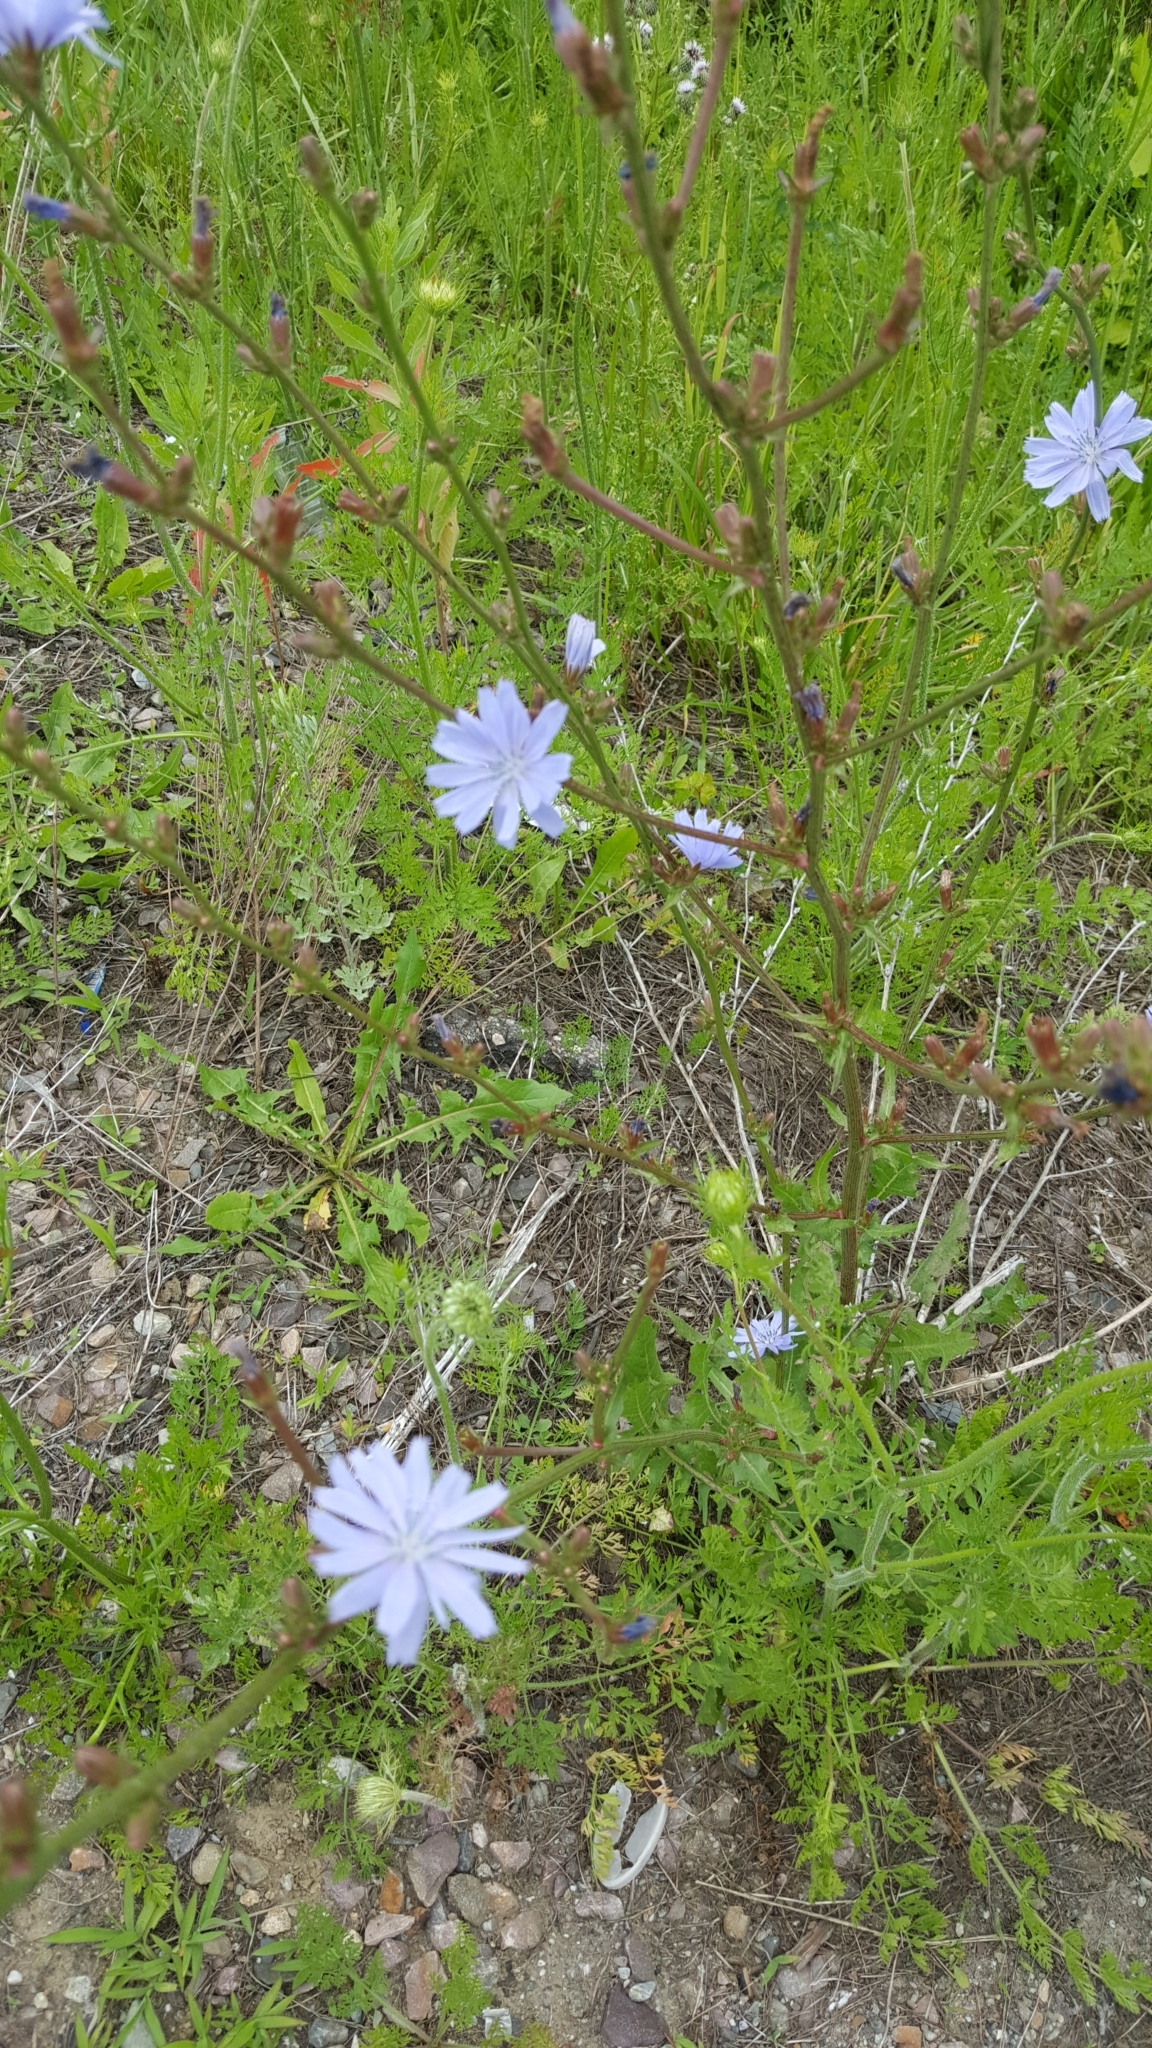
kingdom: Plantae
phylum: Tracheophyta
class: Magnoliopsida
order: Asterales
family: Asteraceae
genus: Cichorium
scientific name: Cichorium intybus
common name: Chicory
